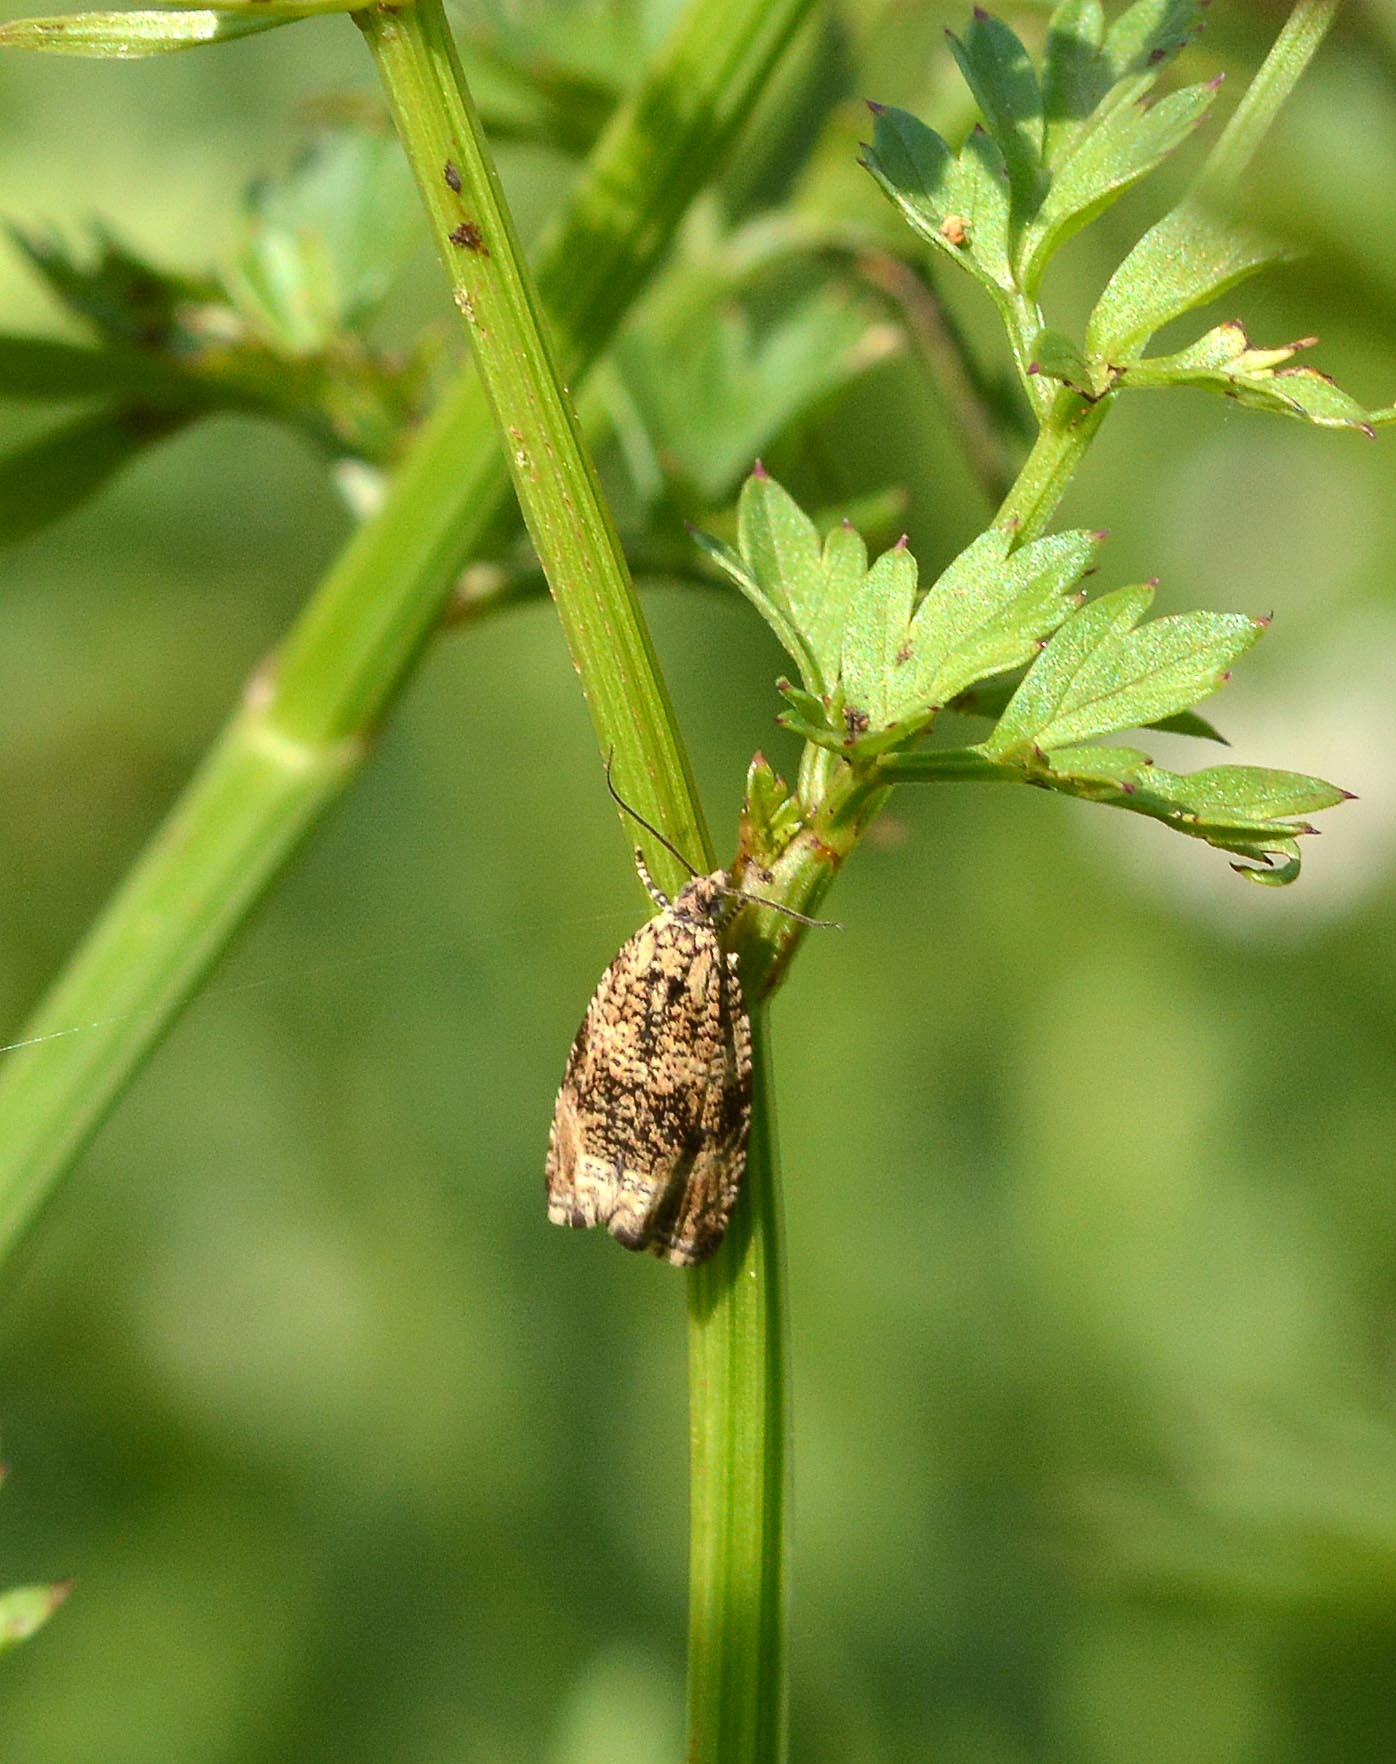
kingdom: Animalia
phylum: Arthropoda
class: Insecta
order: Lepidoptera
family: Tortricidae
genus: Syricoris
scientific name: Syricoris lacunana
